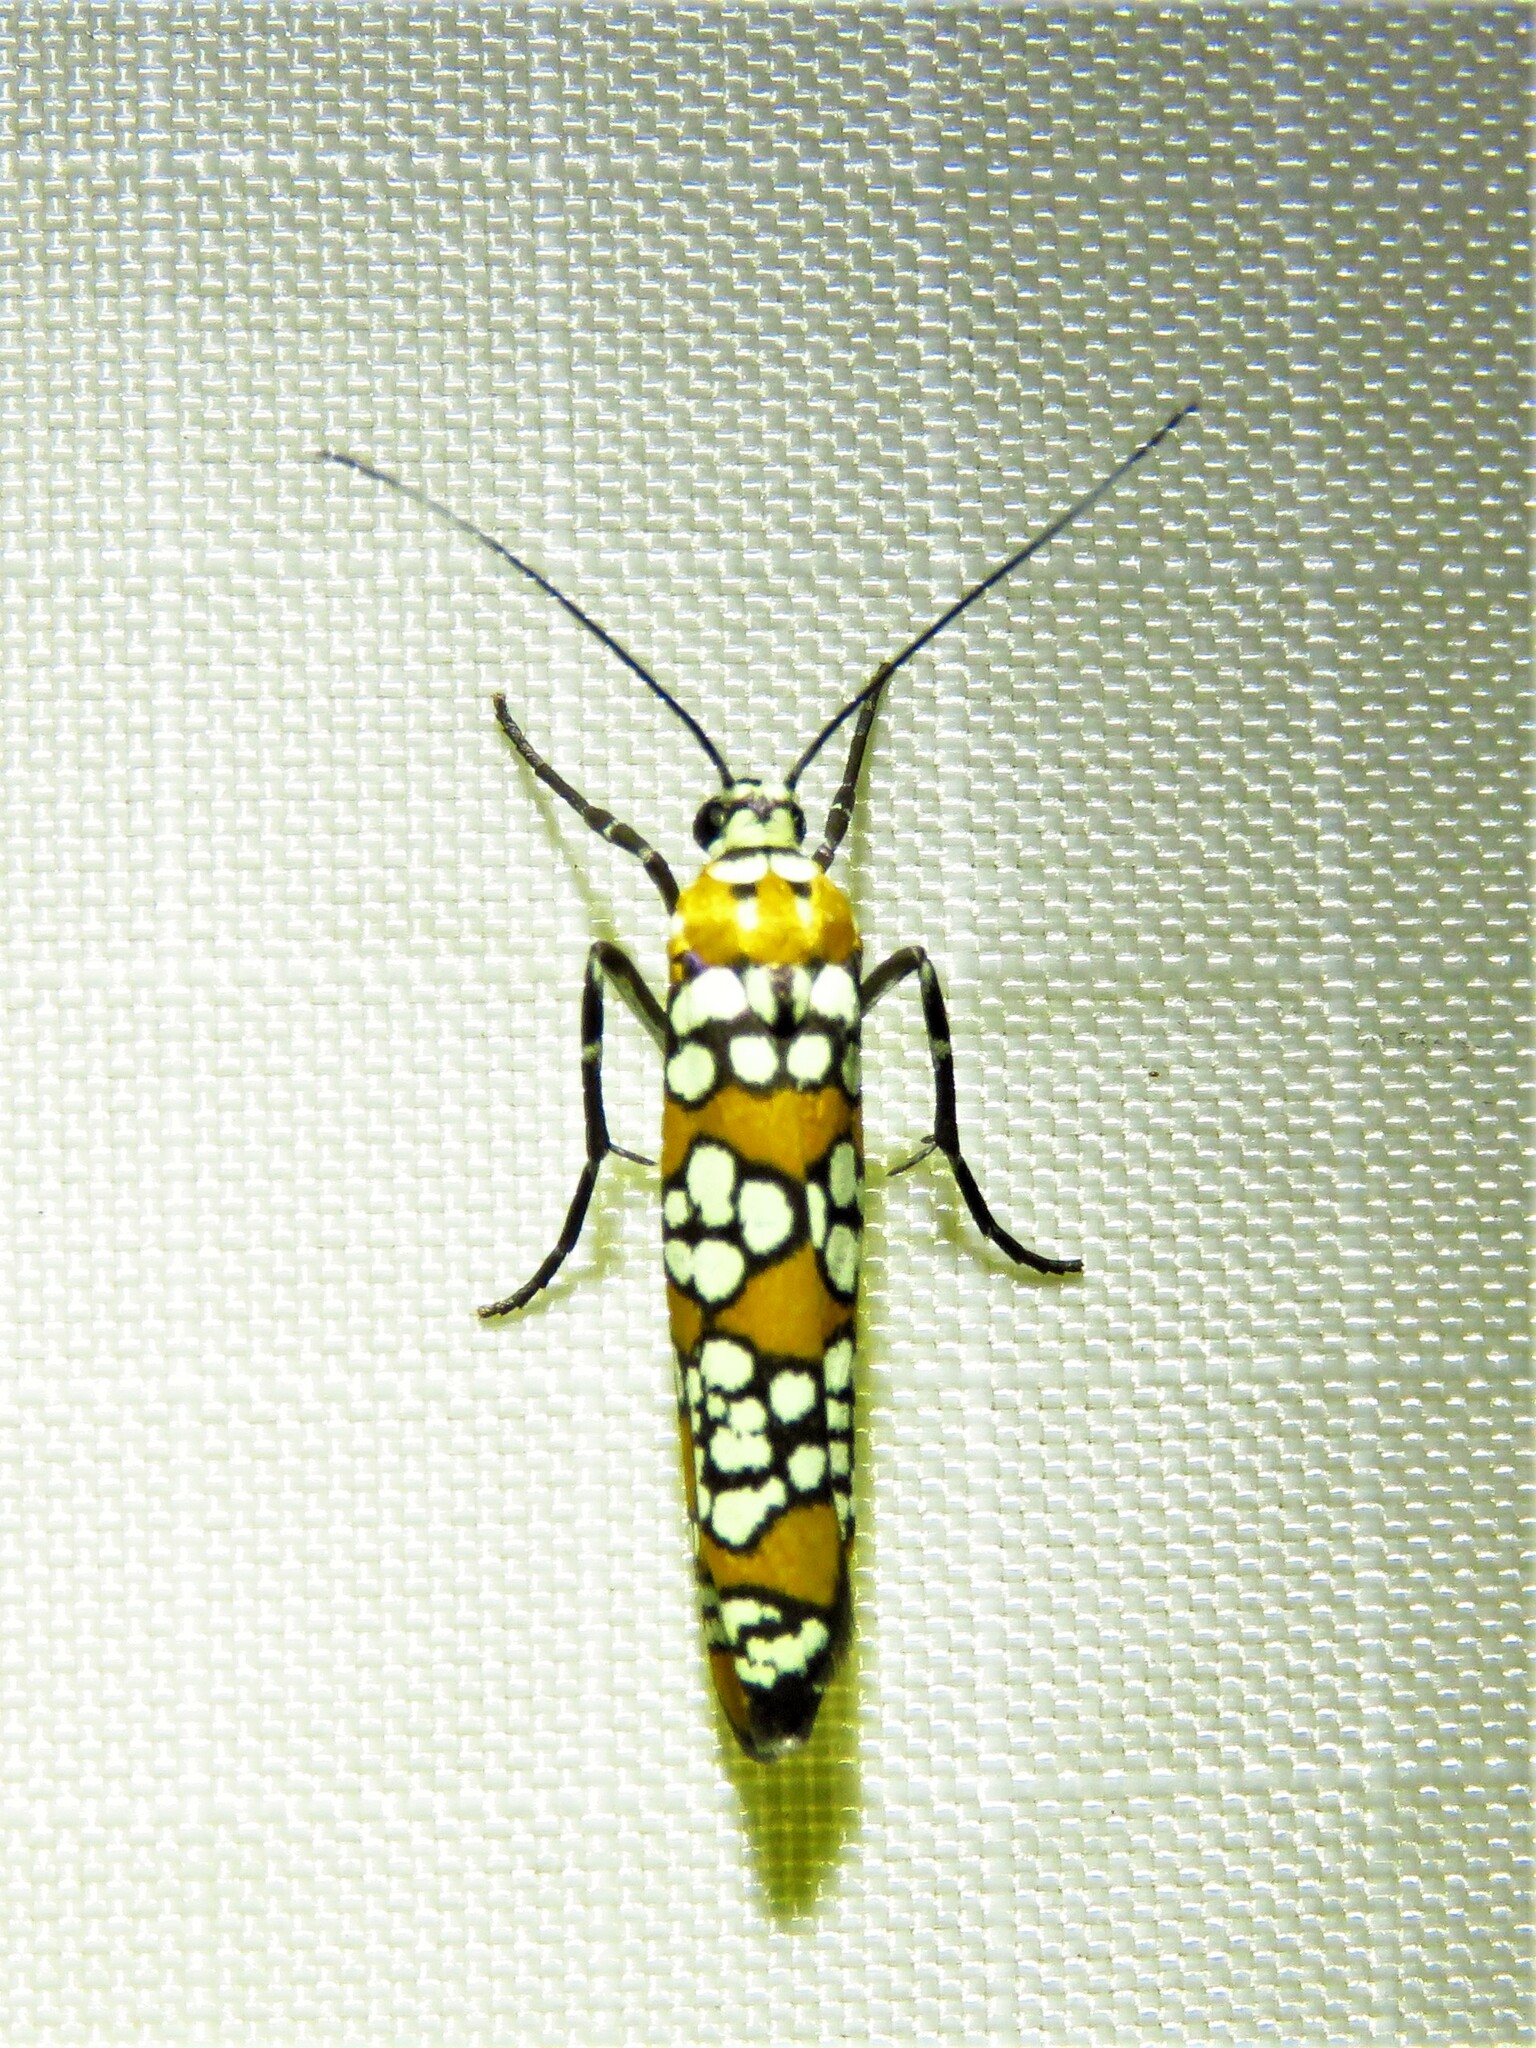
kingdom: Animalia
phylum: Arthropoda
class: Insecta
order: Lepidoptera
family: Attevidae
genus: Atteva
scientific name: Atteva punctella
